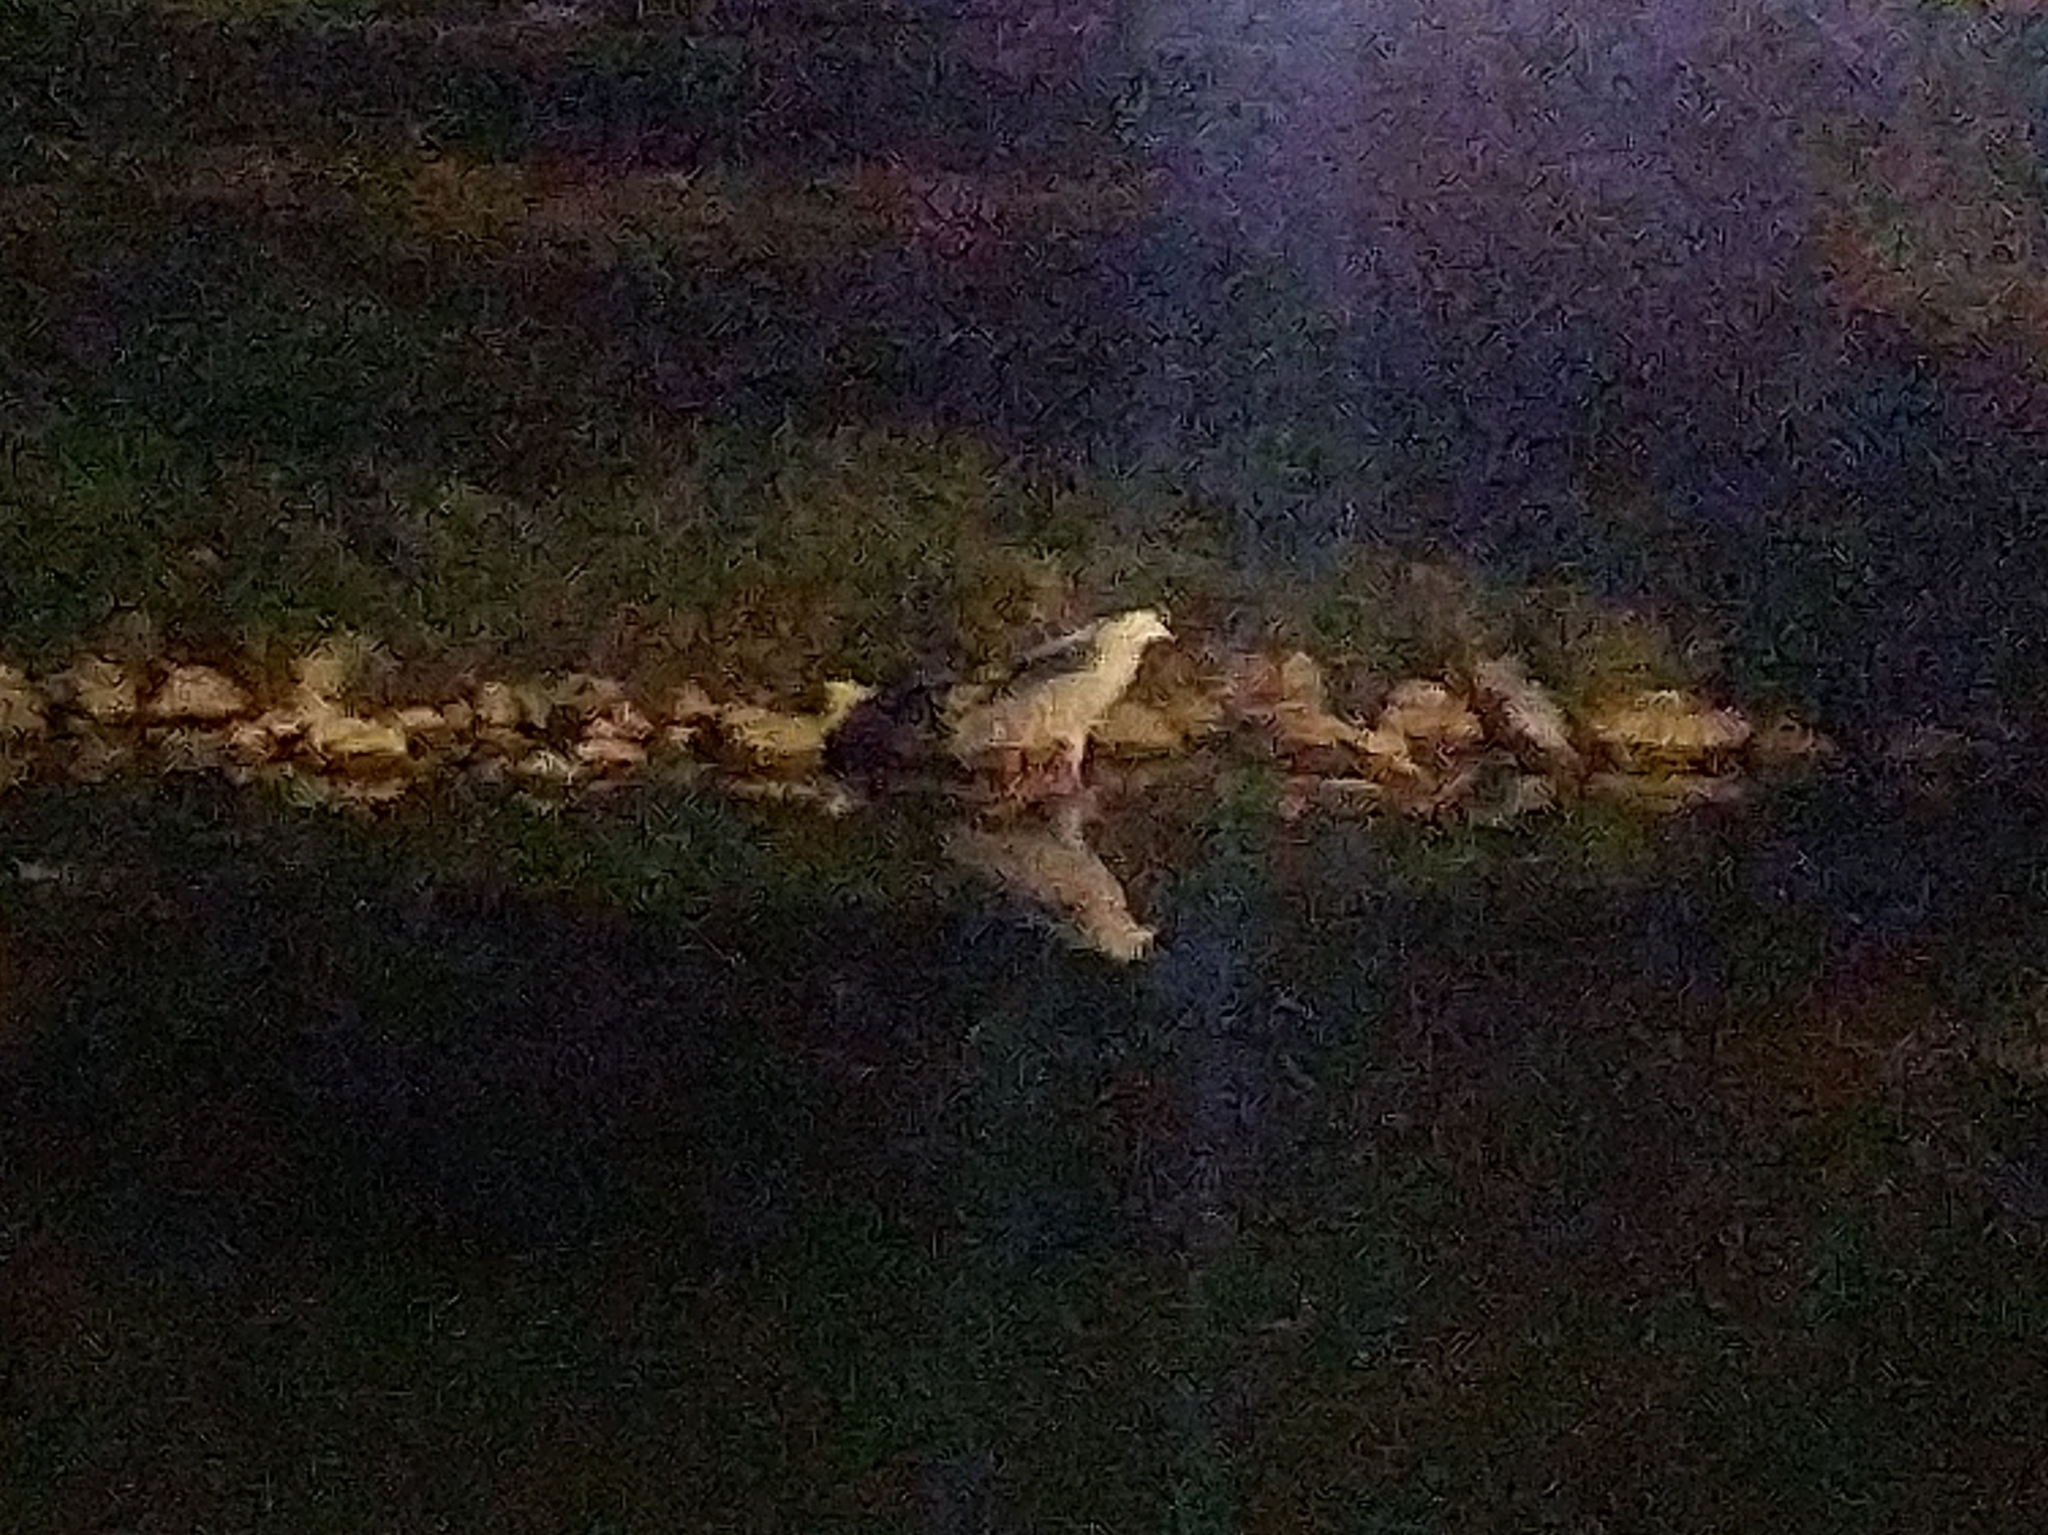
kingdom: Animalia
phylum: Chordata
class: Aves
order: Pelecaniformes
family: Ardeidae
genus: Nycticorax
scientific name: Nycticorax nycticorax
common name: Black-crowned night heron
